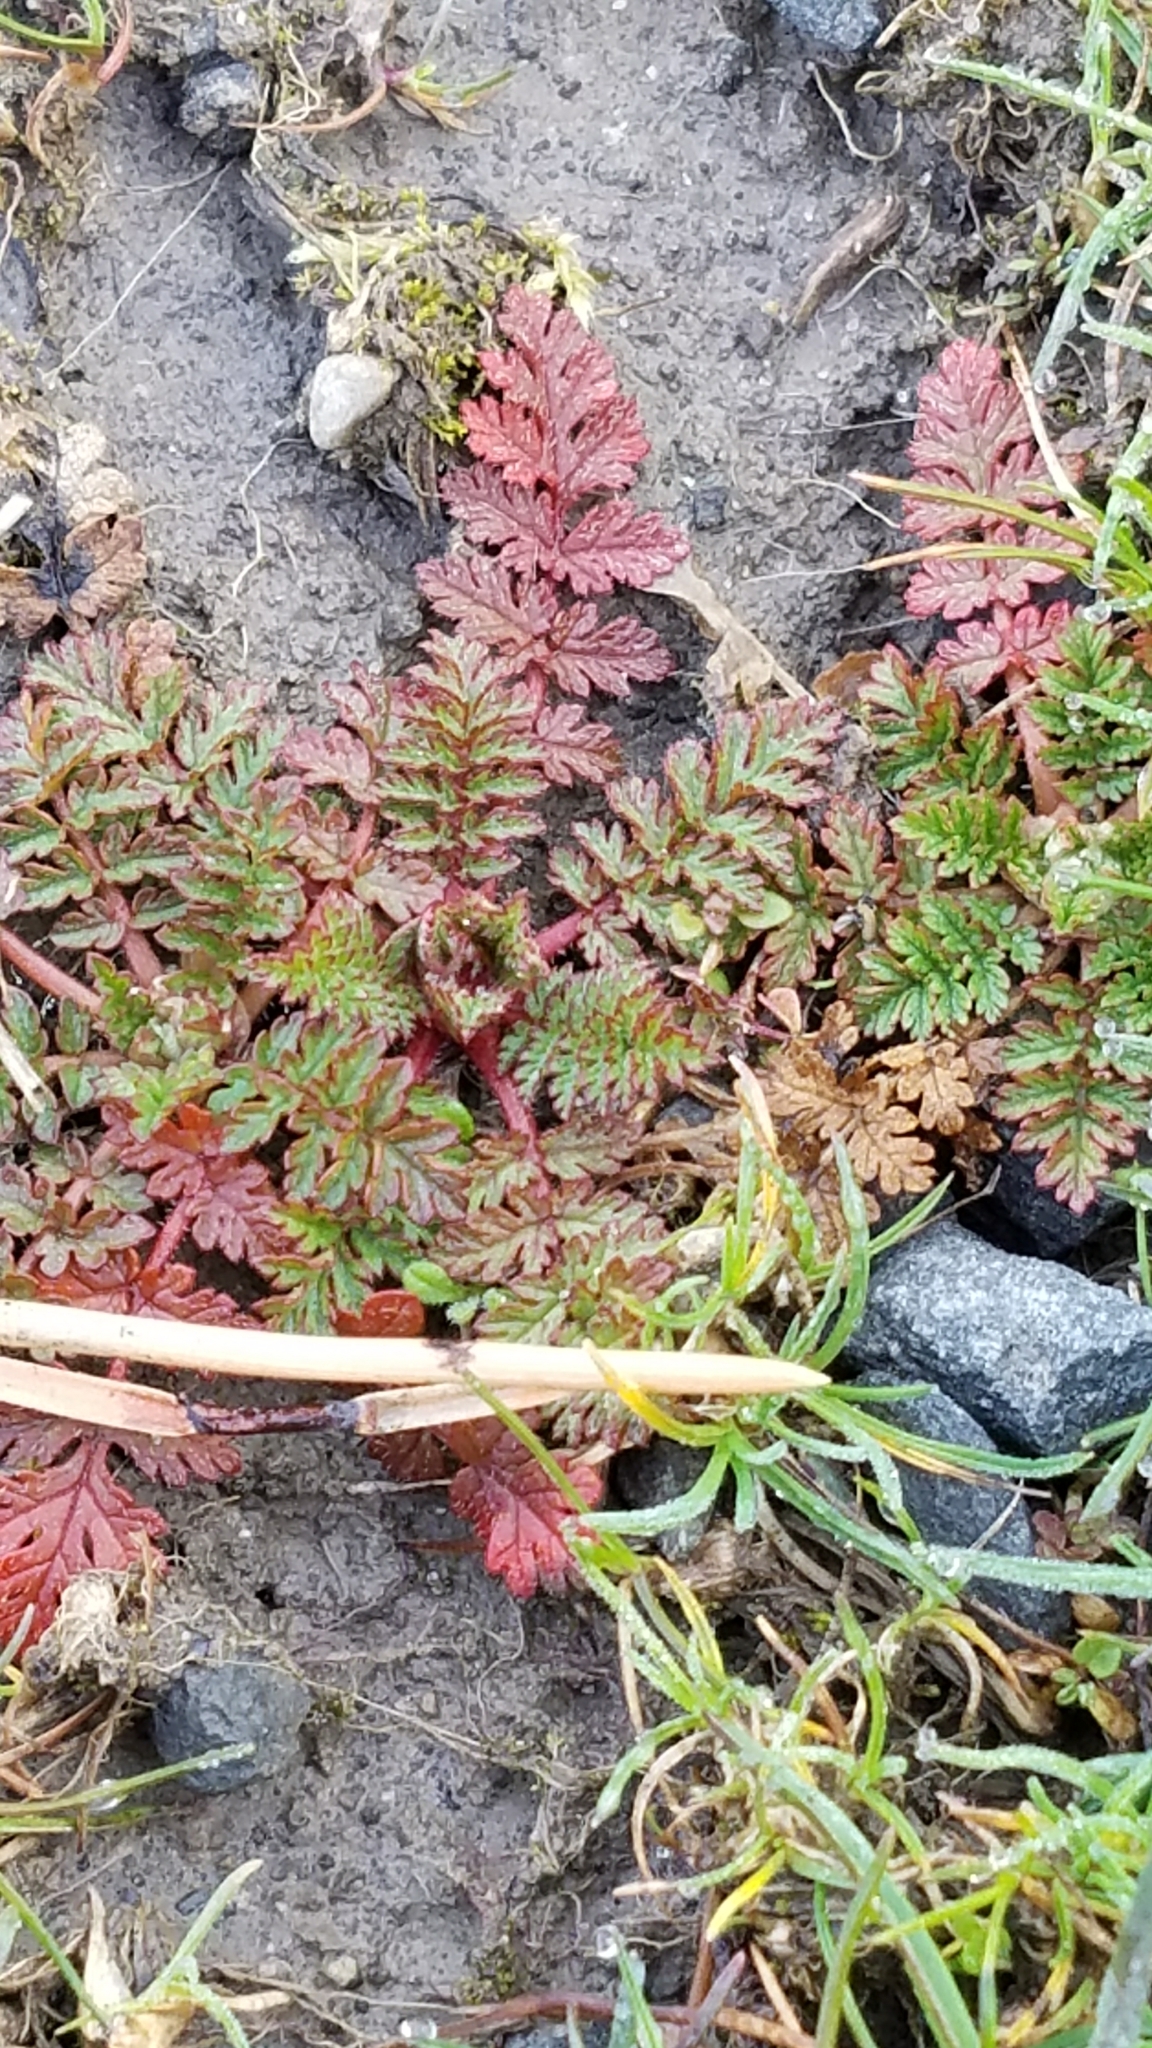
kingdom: Plantae
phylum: Tracheophyta
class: Magnoliopsida
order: Geraniales
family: Geraniaceae
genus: Erodium
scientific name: Erodium cicutarium
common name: Common stork's-bill
